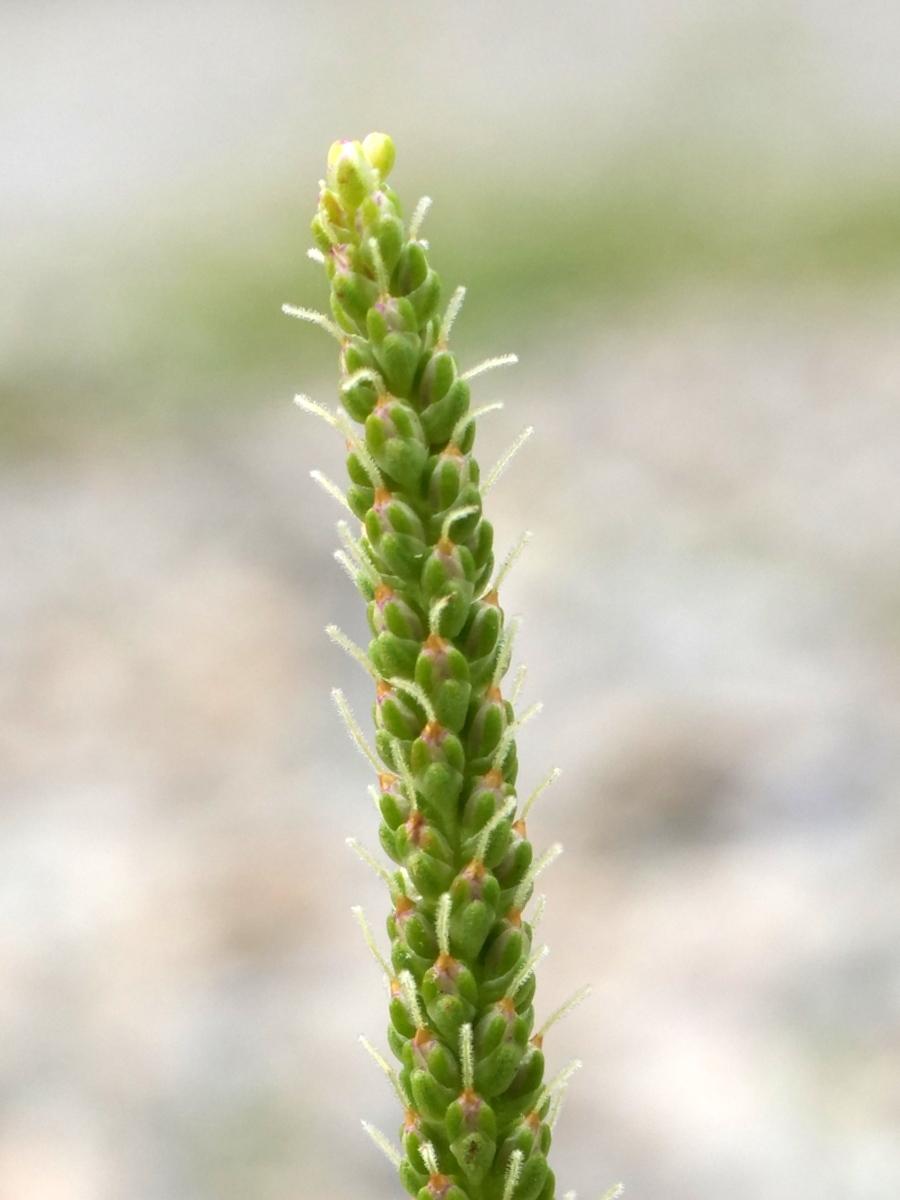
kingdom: Plantae
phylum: Tracheophyta
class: Magnoliopsida
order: Lamiales
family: Plantaginaceae
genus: Plantago
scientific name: Plantago major
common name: Common plantain
